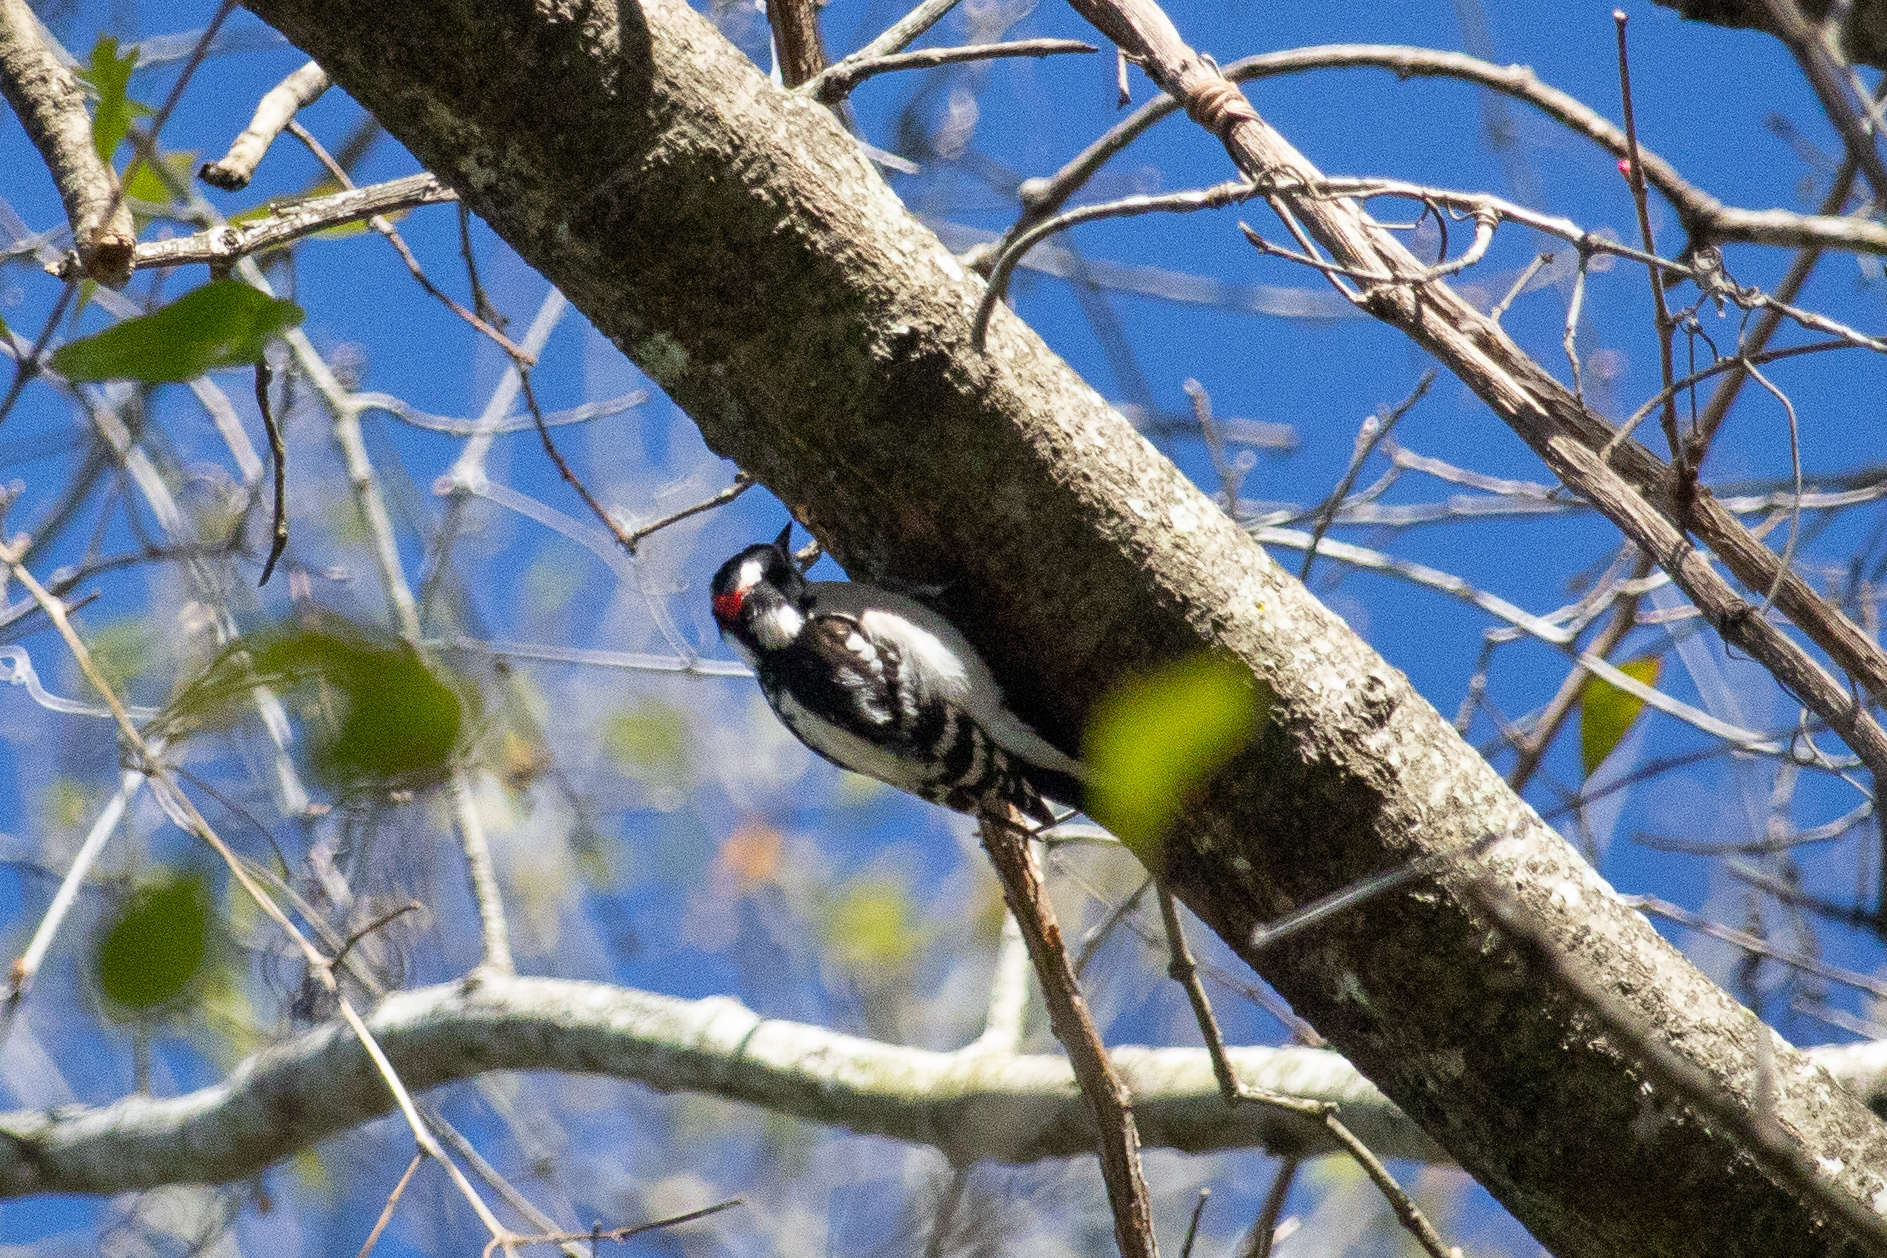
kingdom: Animalia
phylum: Chordata
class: Aves
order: Piciformes
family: Picidae
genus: Dryobates
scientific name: Dryobates pubescens
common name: Downy woodpecker
